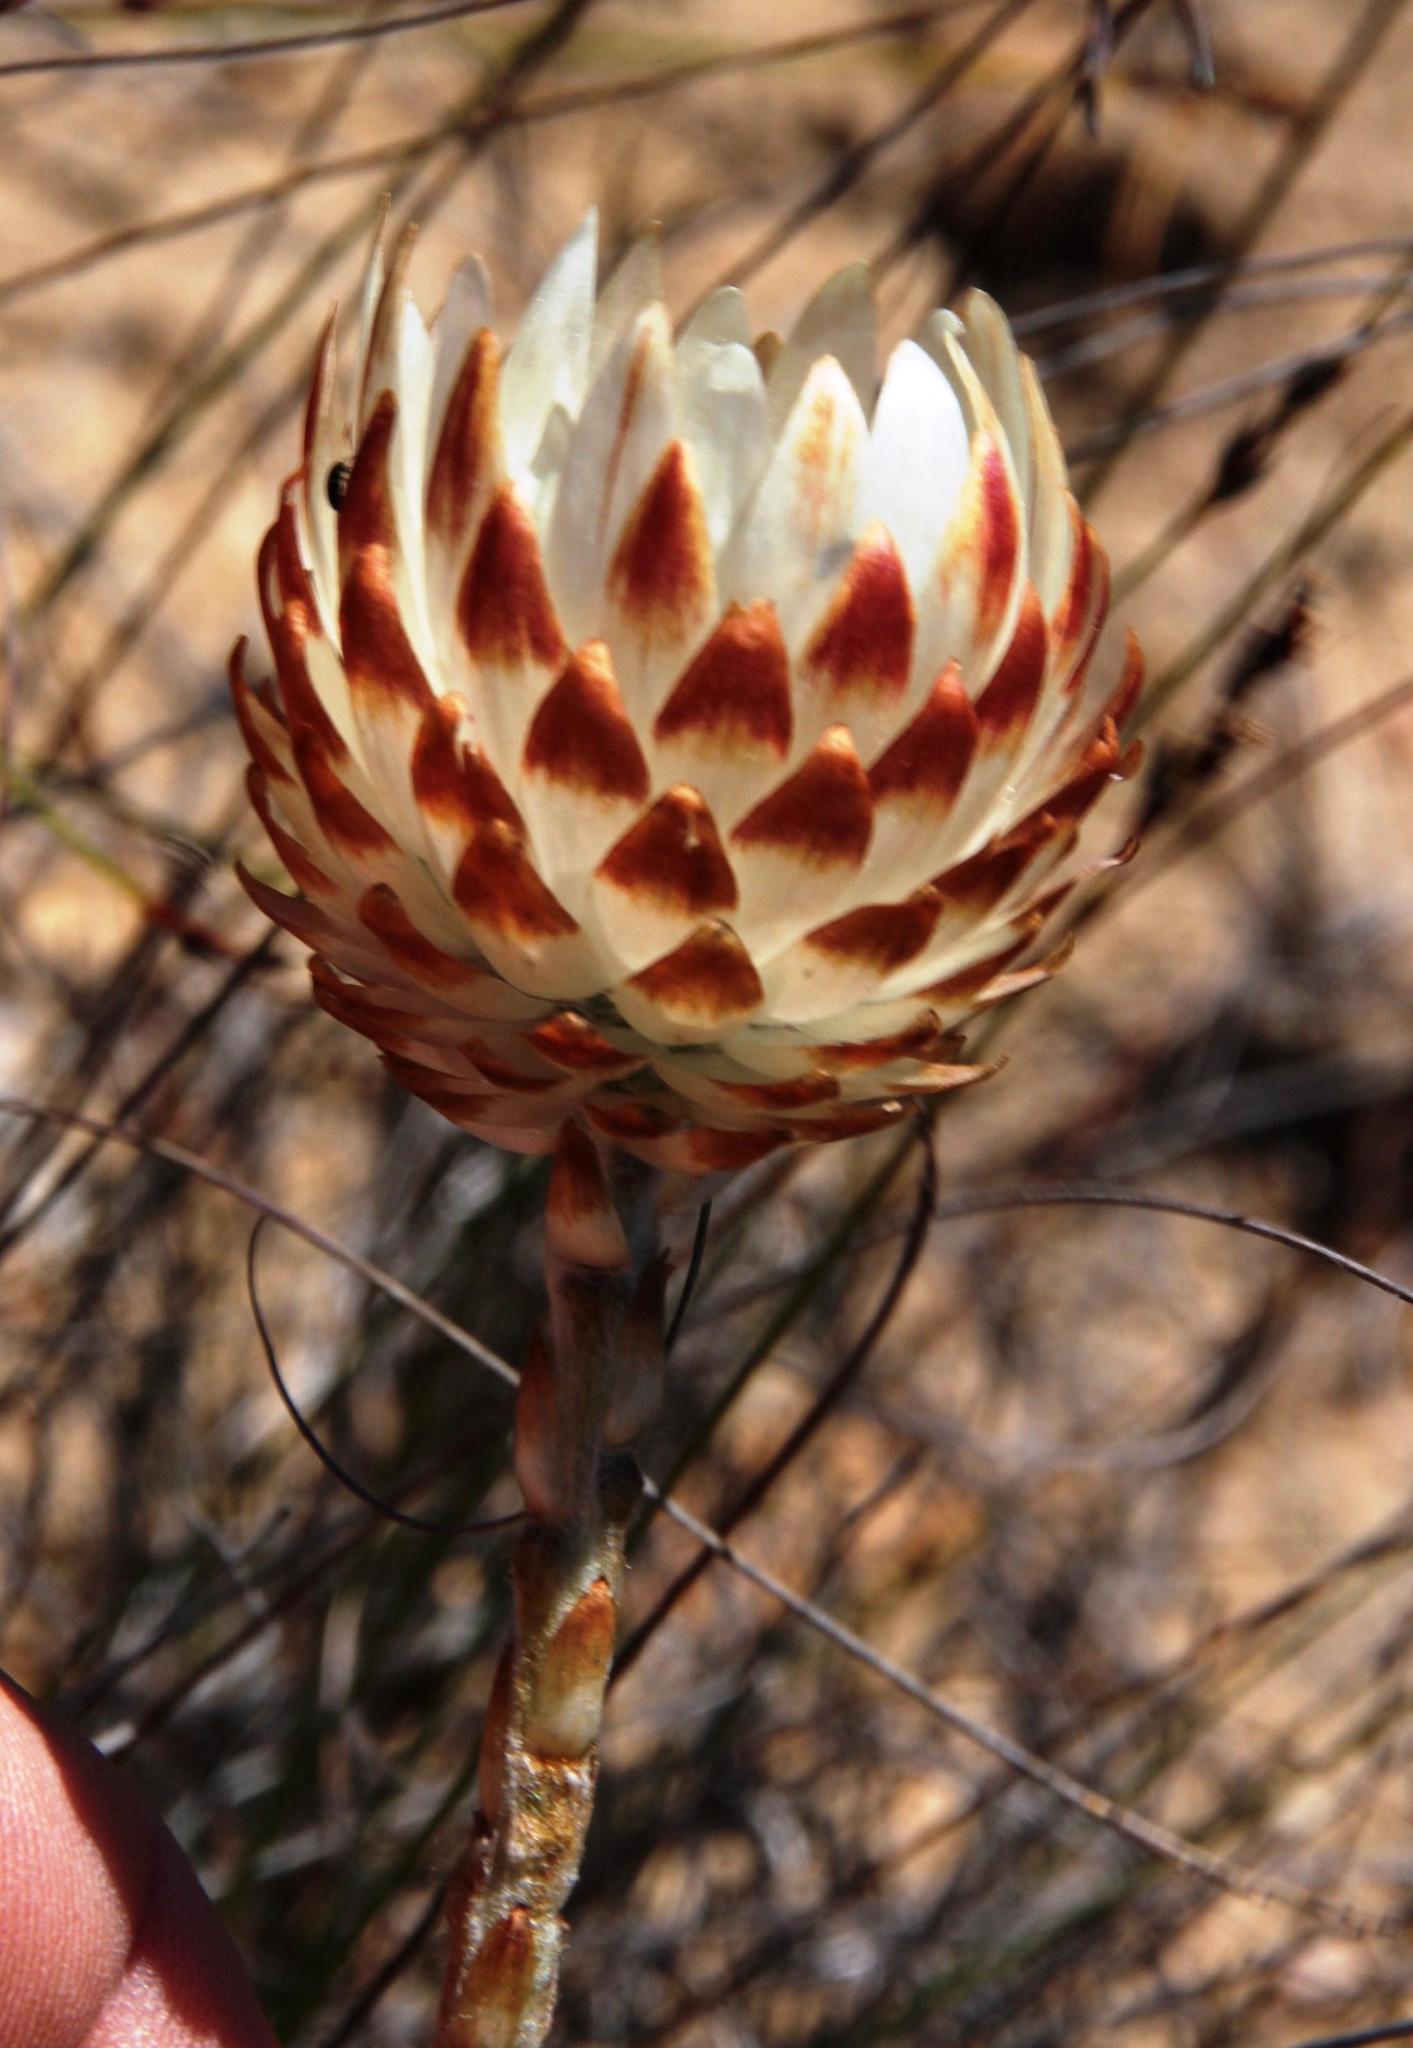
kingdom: Plantae
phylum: Tracheophyta
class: Magnoliopsida
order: Asterales
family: Asteraceae
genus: Syncarpha
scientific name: Syncarpha variegata
